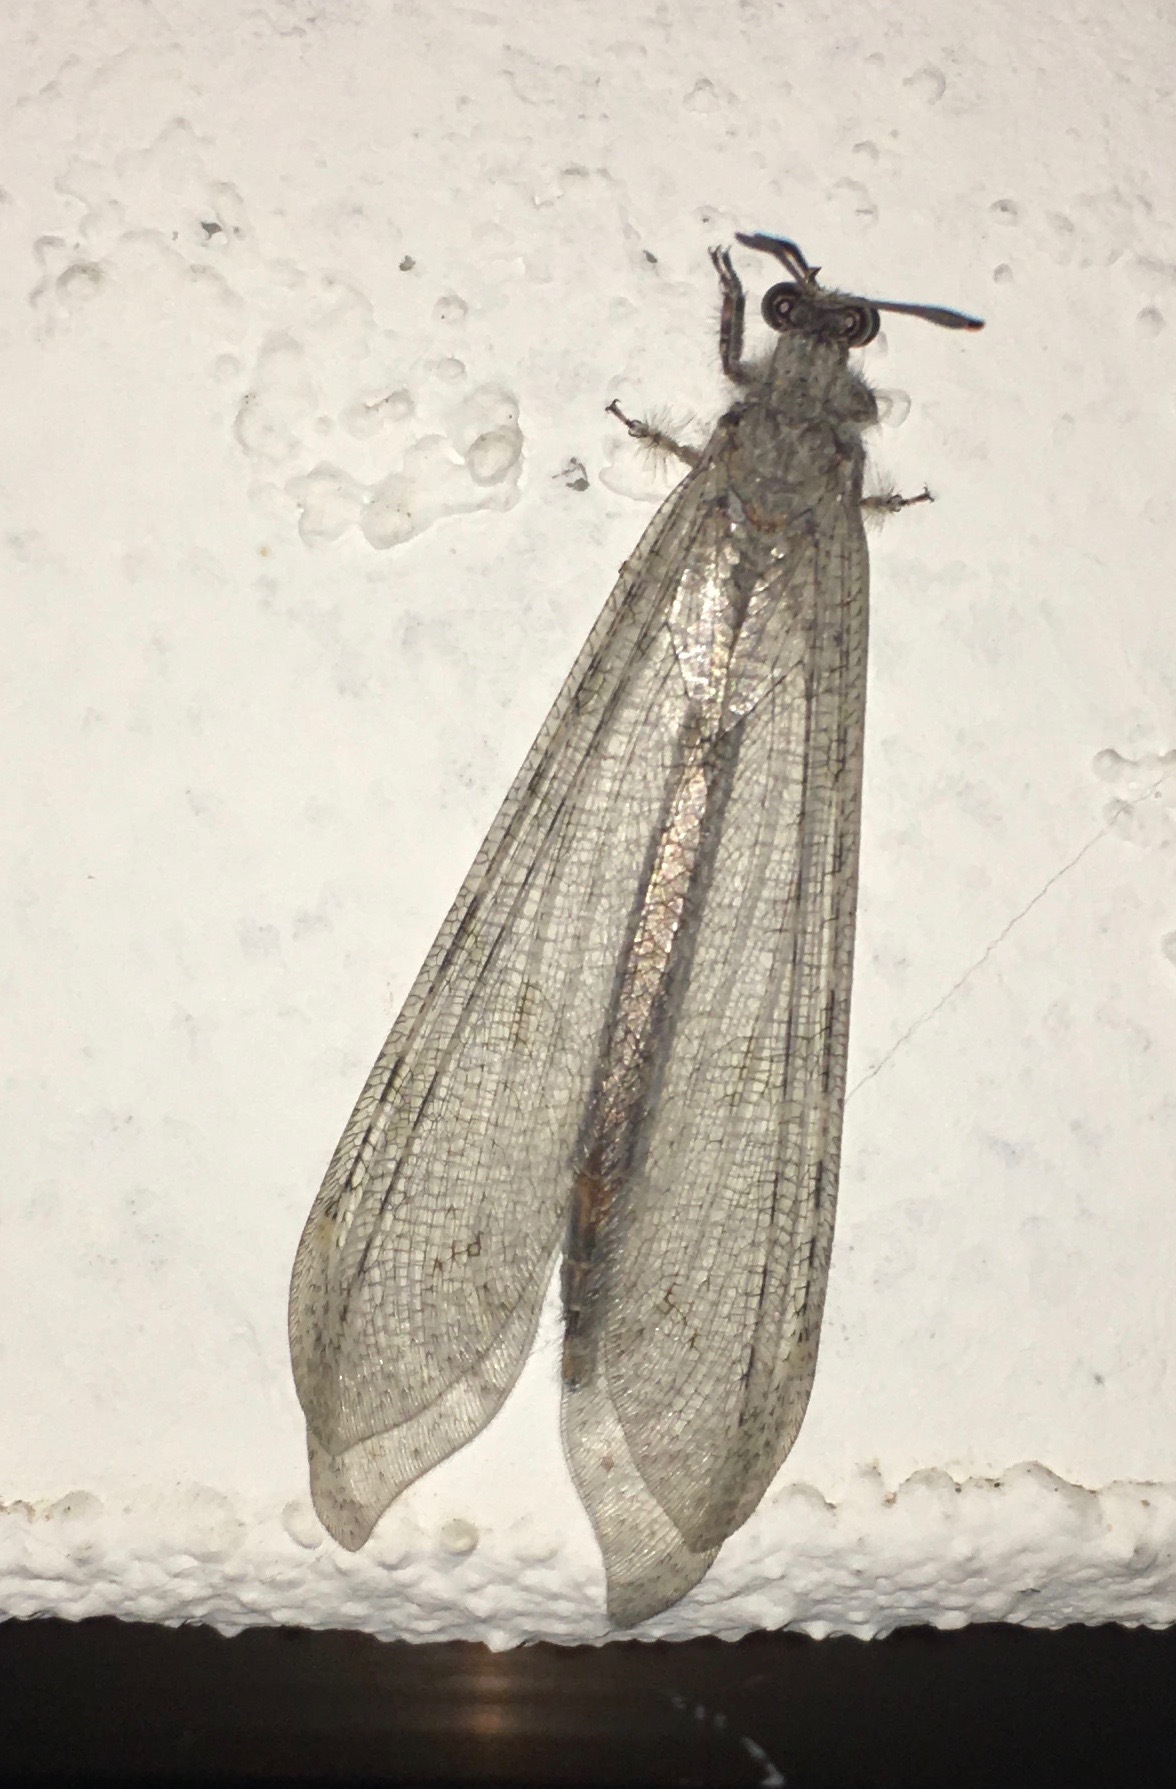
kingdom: Animalia
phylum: Arthropoda
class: Insecta
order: Neuroptera
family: Myrmeleontidae
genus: Vella
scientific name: Vella fallax
